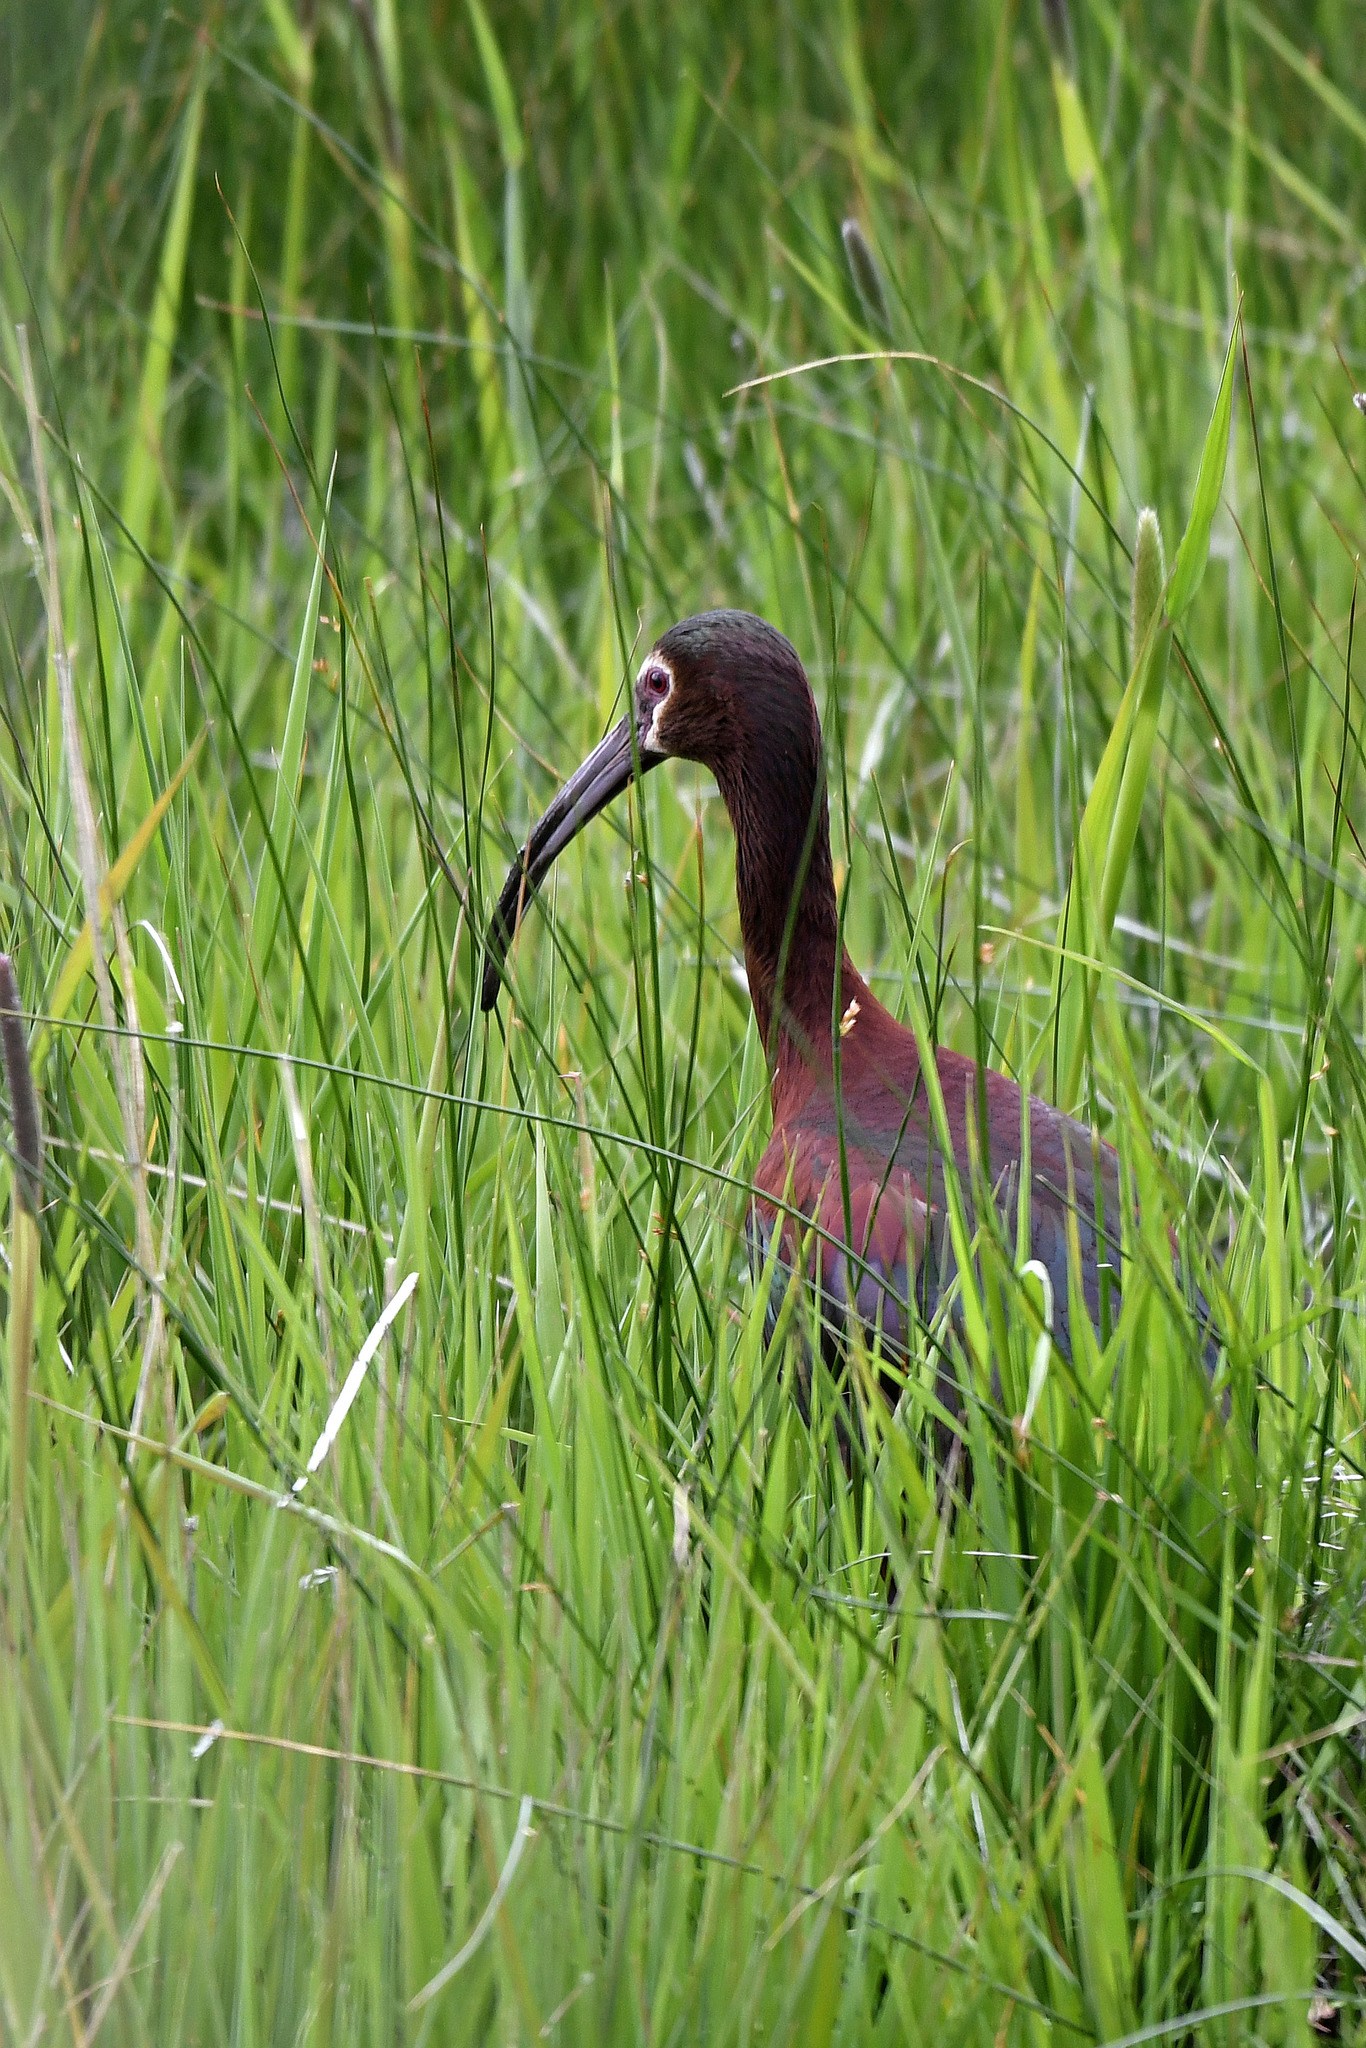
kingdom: Animalia
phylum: Chordata
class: Aves
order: Pelecaniformes
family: Threskiornithidae
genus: Plegadis
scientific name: Plegadis chihi
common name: White-faced ibis
